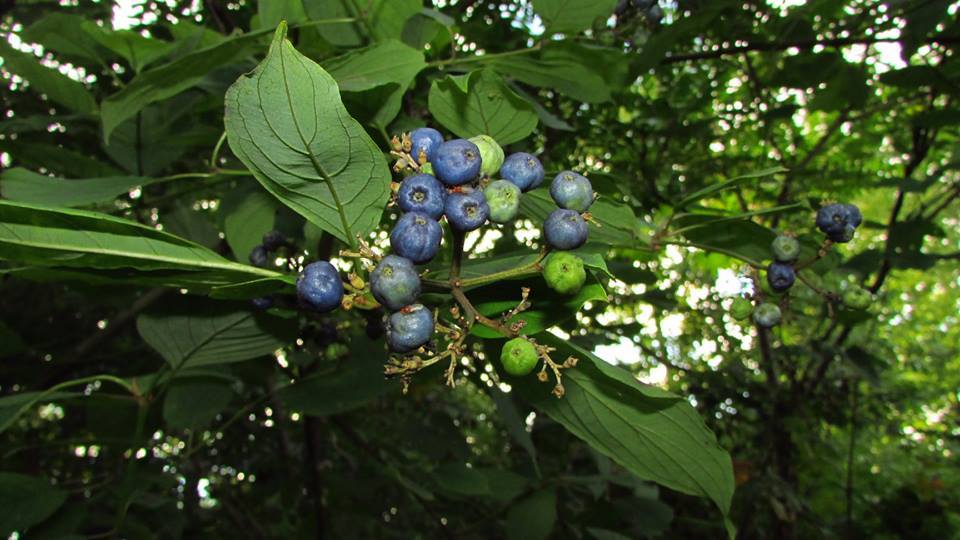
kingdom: Plantae
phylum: Tracheophyta
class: Magnoliopsida
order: Cornales
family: Cornaceae
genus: Cornus
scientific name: Cornus amomum
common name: Silky dogwood
